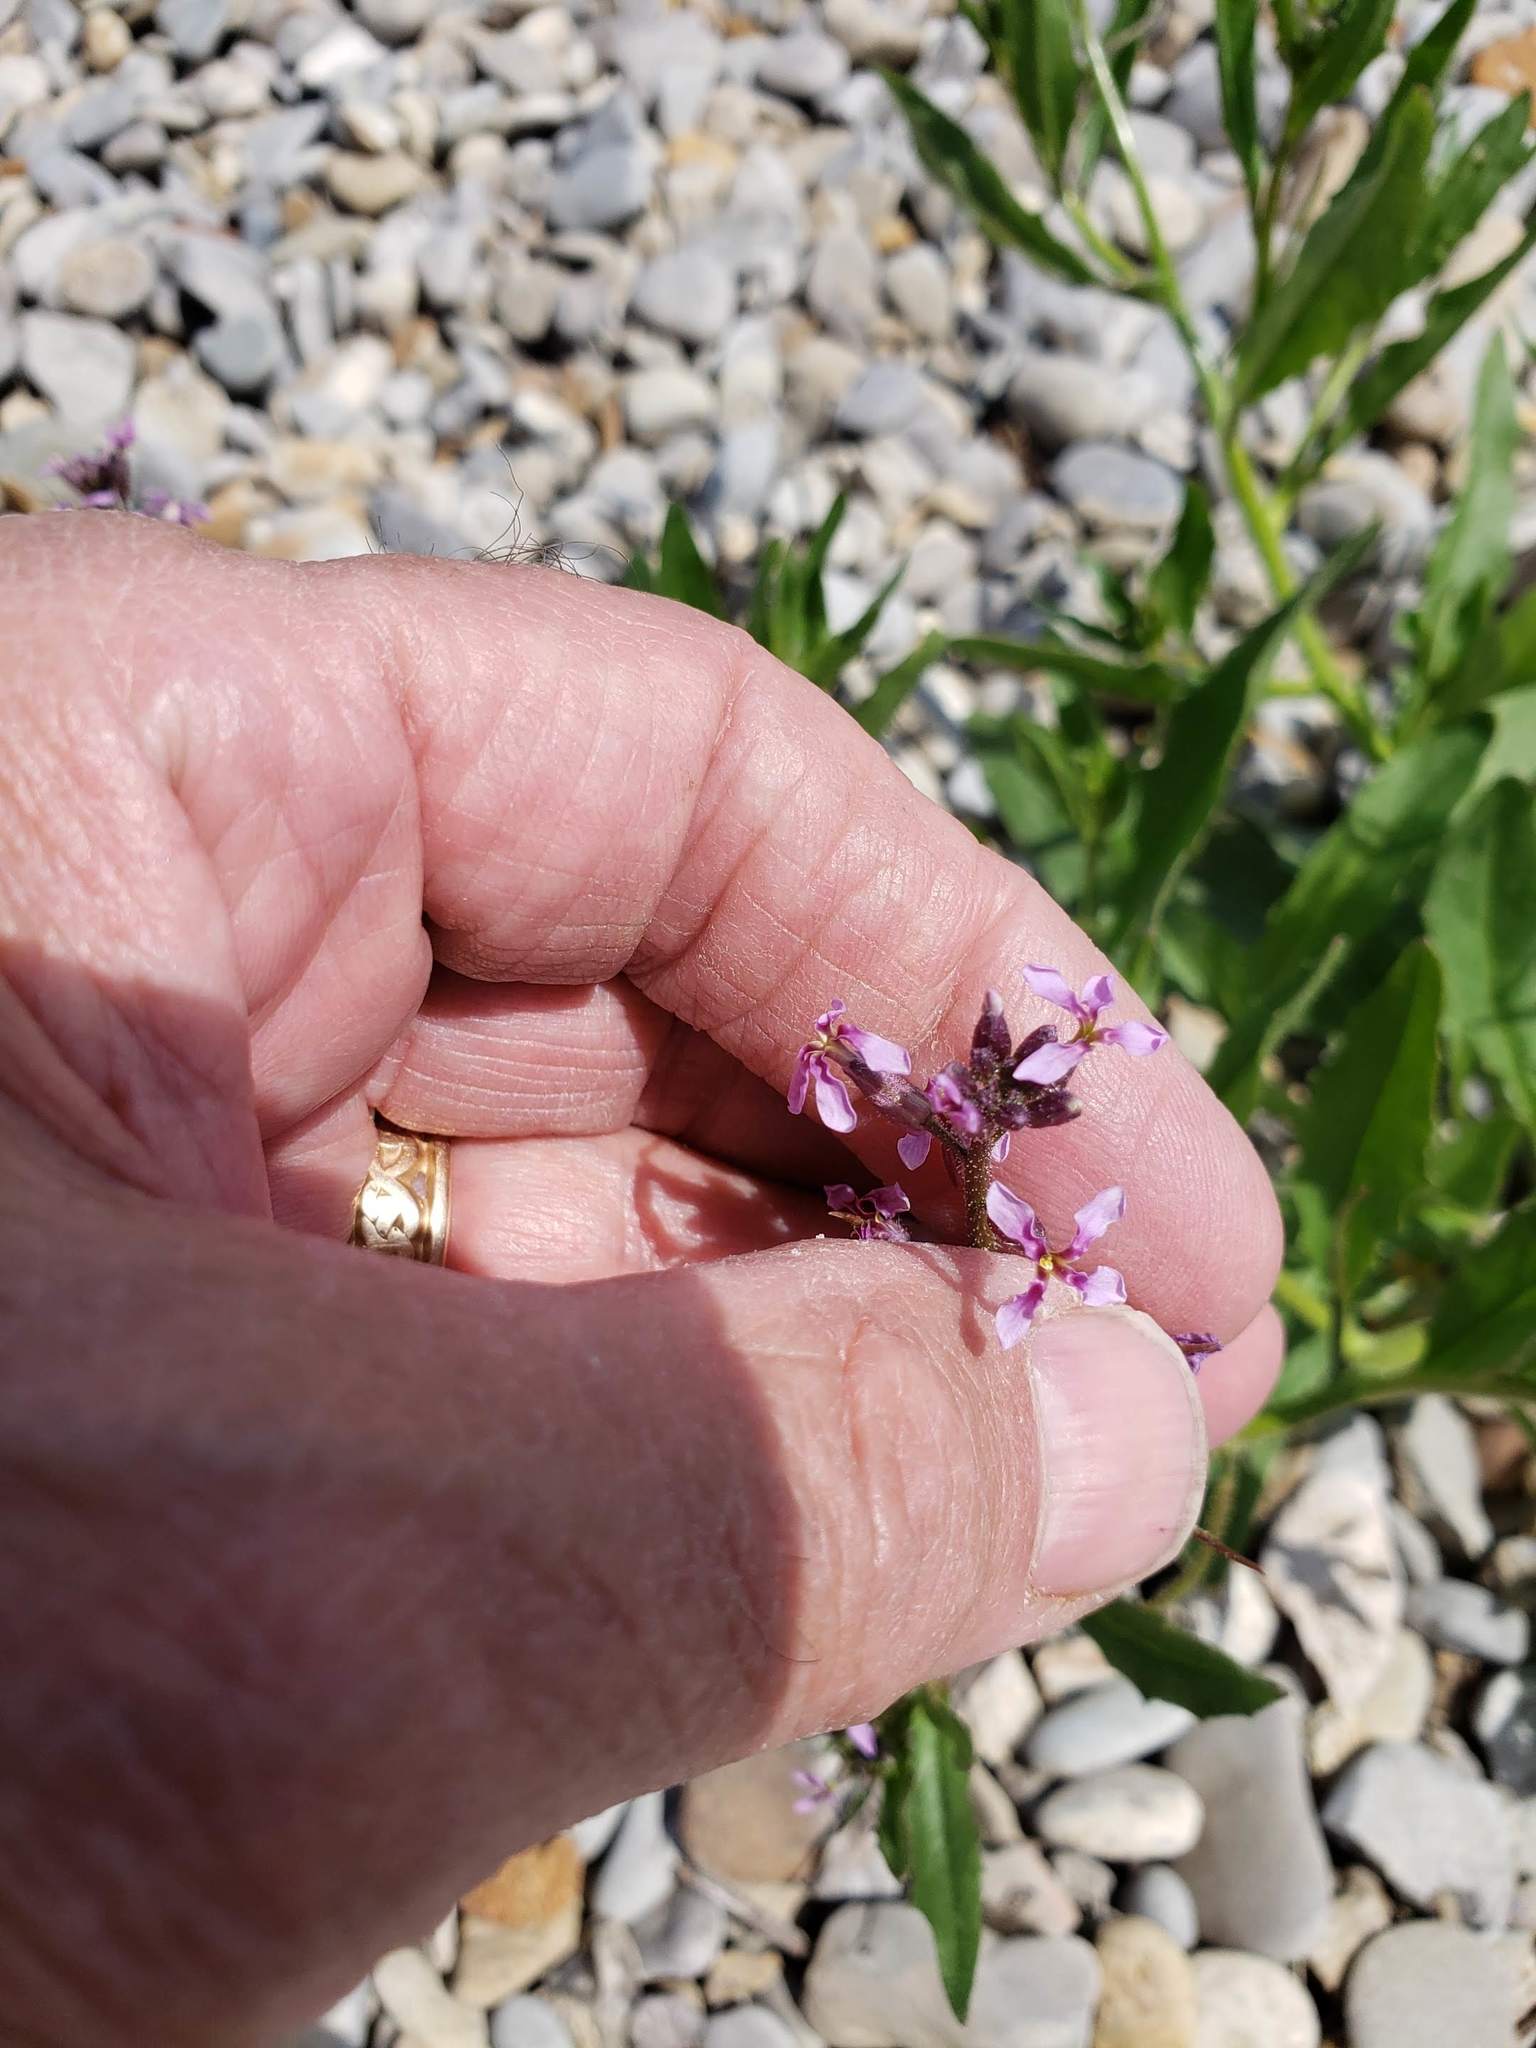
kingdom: Plantae
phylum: Tracheophyta
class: Magnoliopsida
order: Brassicales
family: Brassicaceae
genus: Chorispora
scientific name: Chorispora tenella
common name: Crossflower
